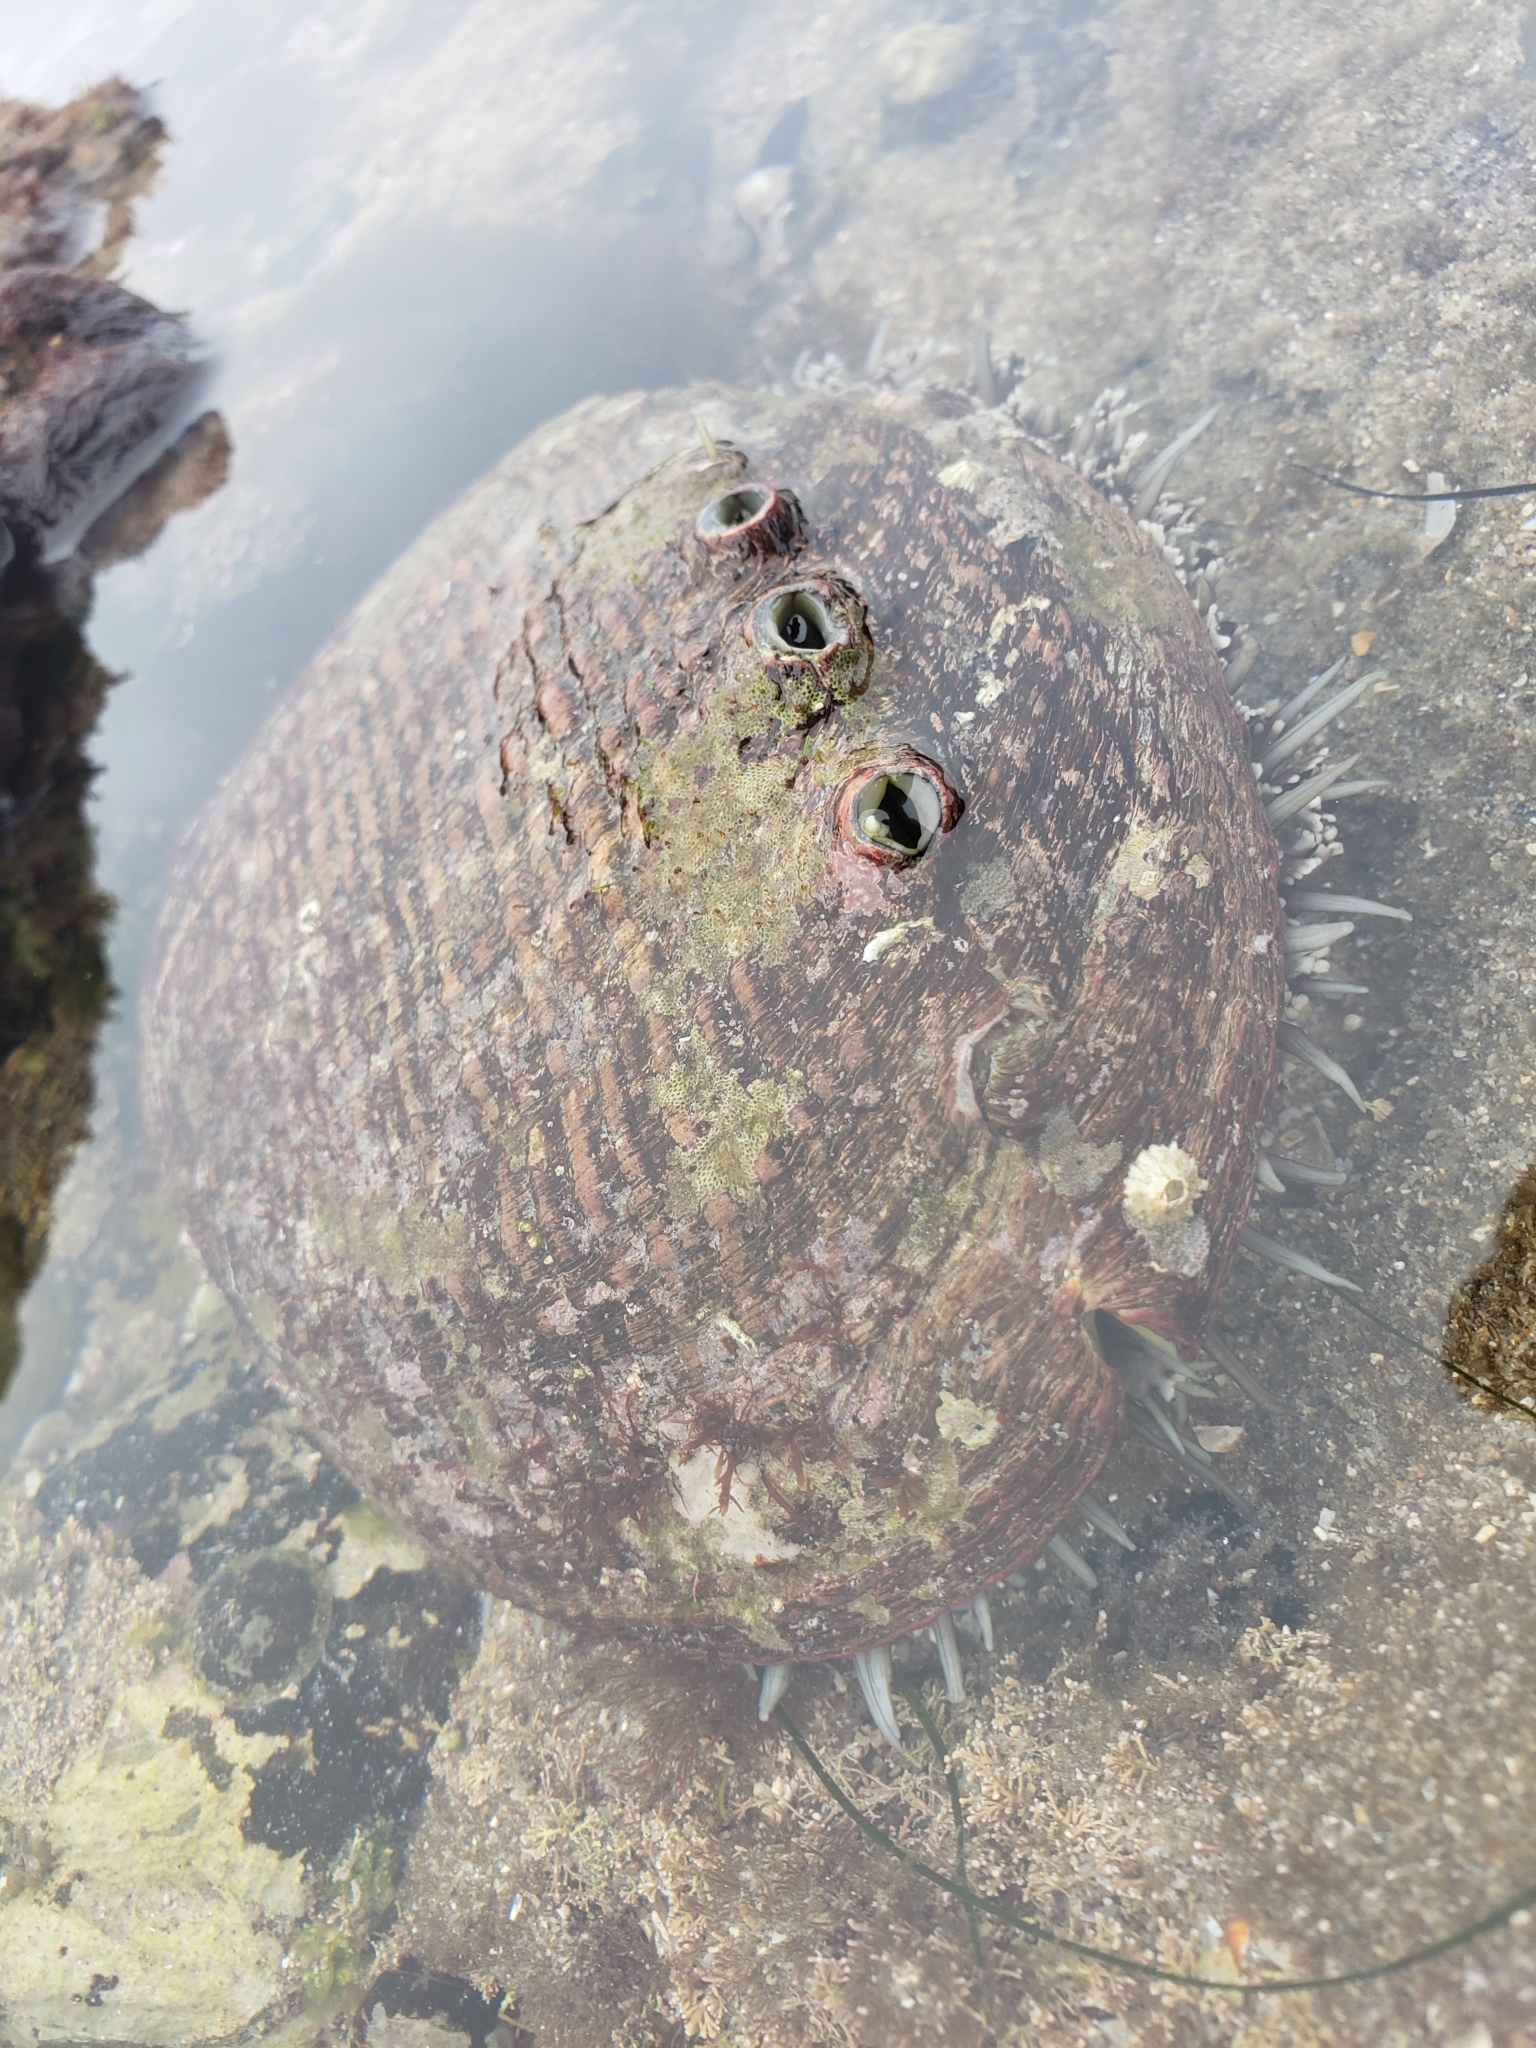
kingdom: Animalia
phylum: Mollusca
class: Gastropoda
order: Lepetellida
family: Haliotidae
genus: Haliotis
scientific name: Haliotis fulgens
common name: Green abalone
